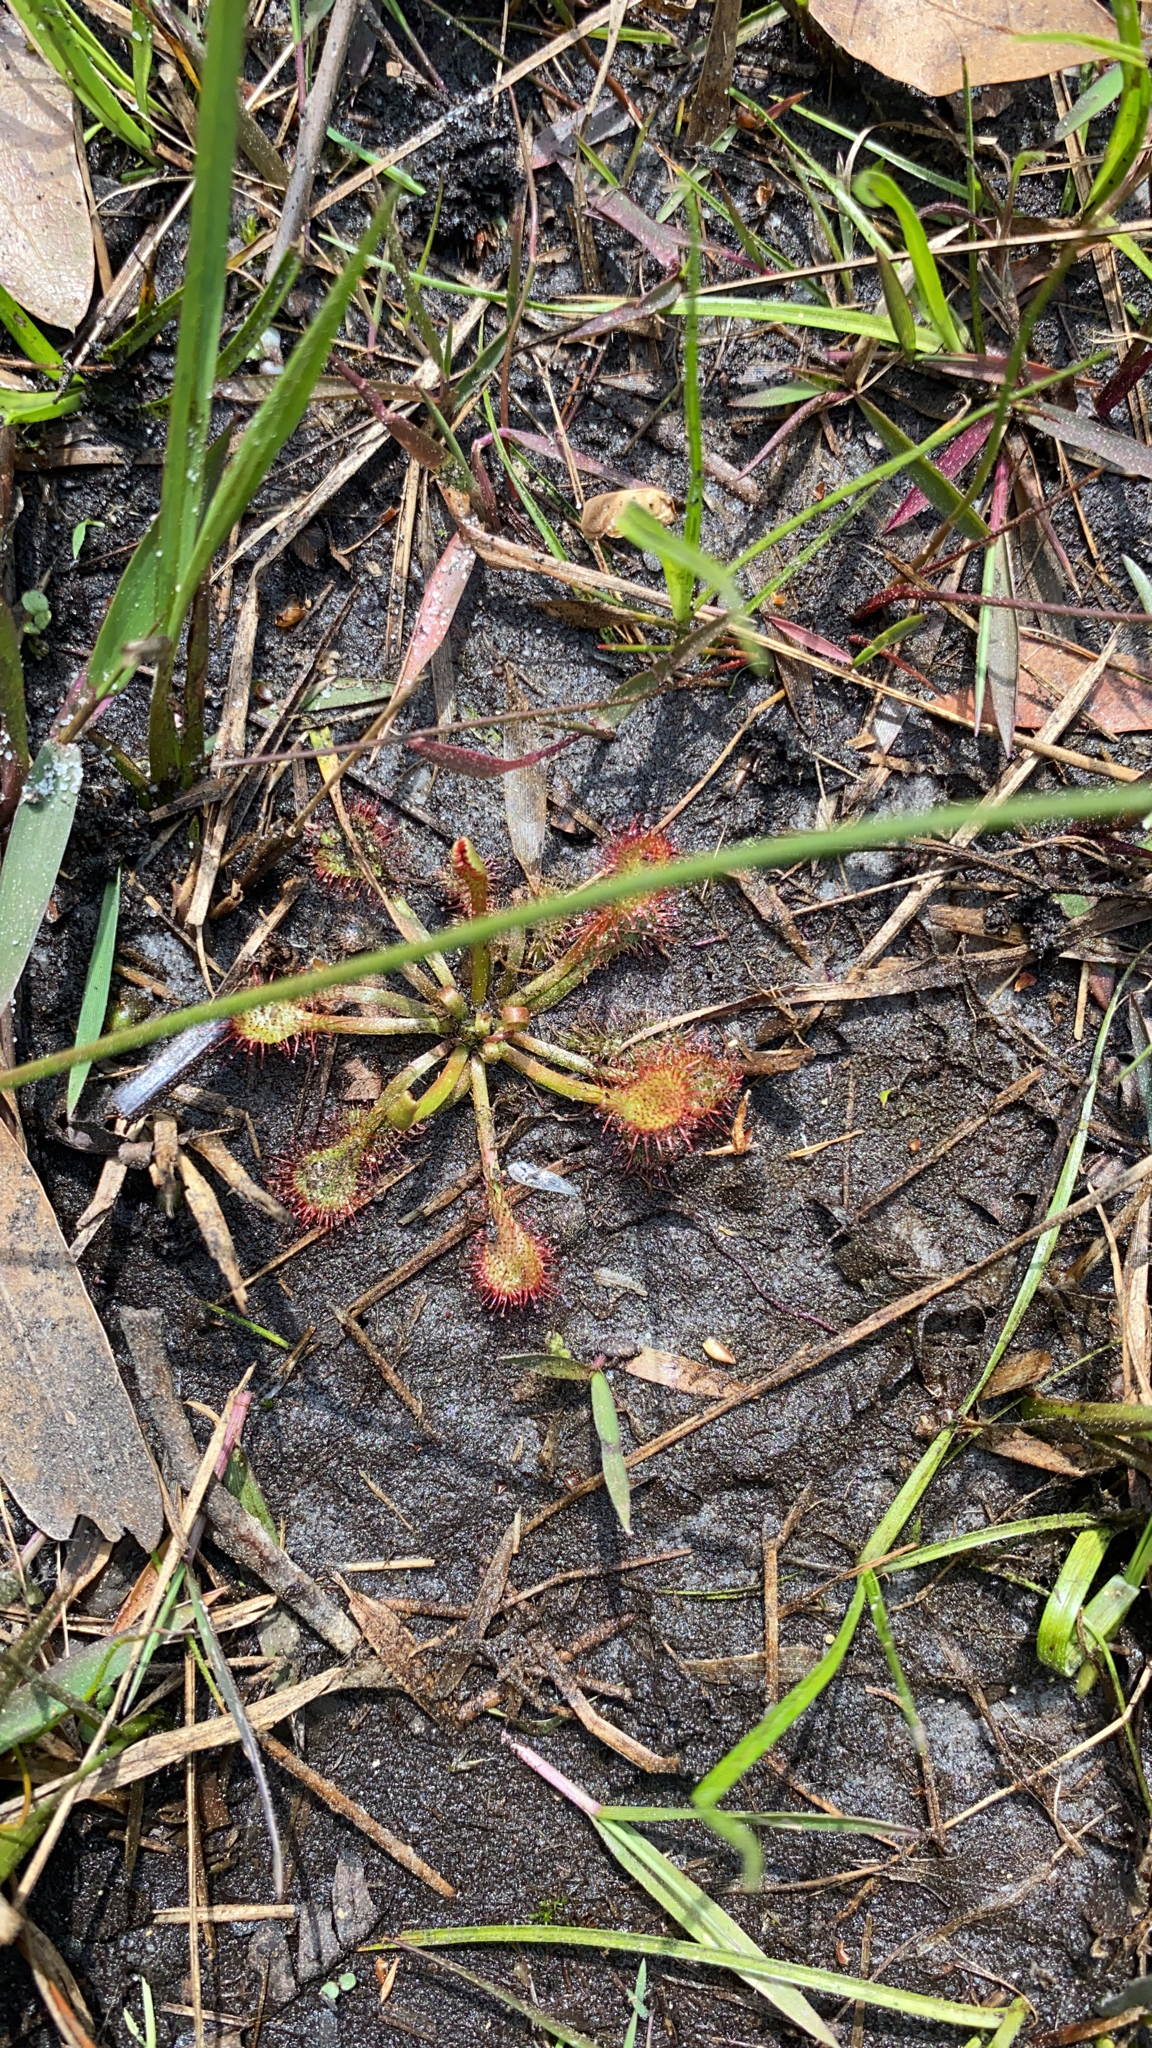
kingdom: Plantae
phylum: Tracheophyta
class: Magnoliopsida
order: Caryophyllales
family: Droseraceae
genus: Drosera
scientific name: Drosera capillaris
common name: Pink sundew
